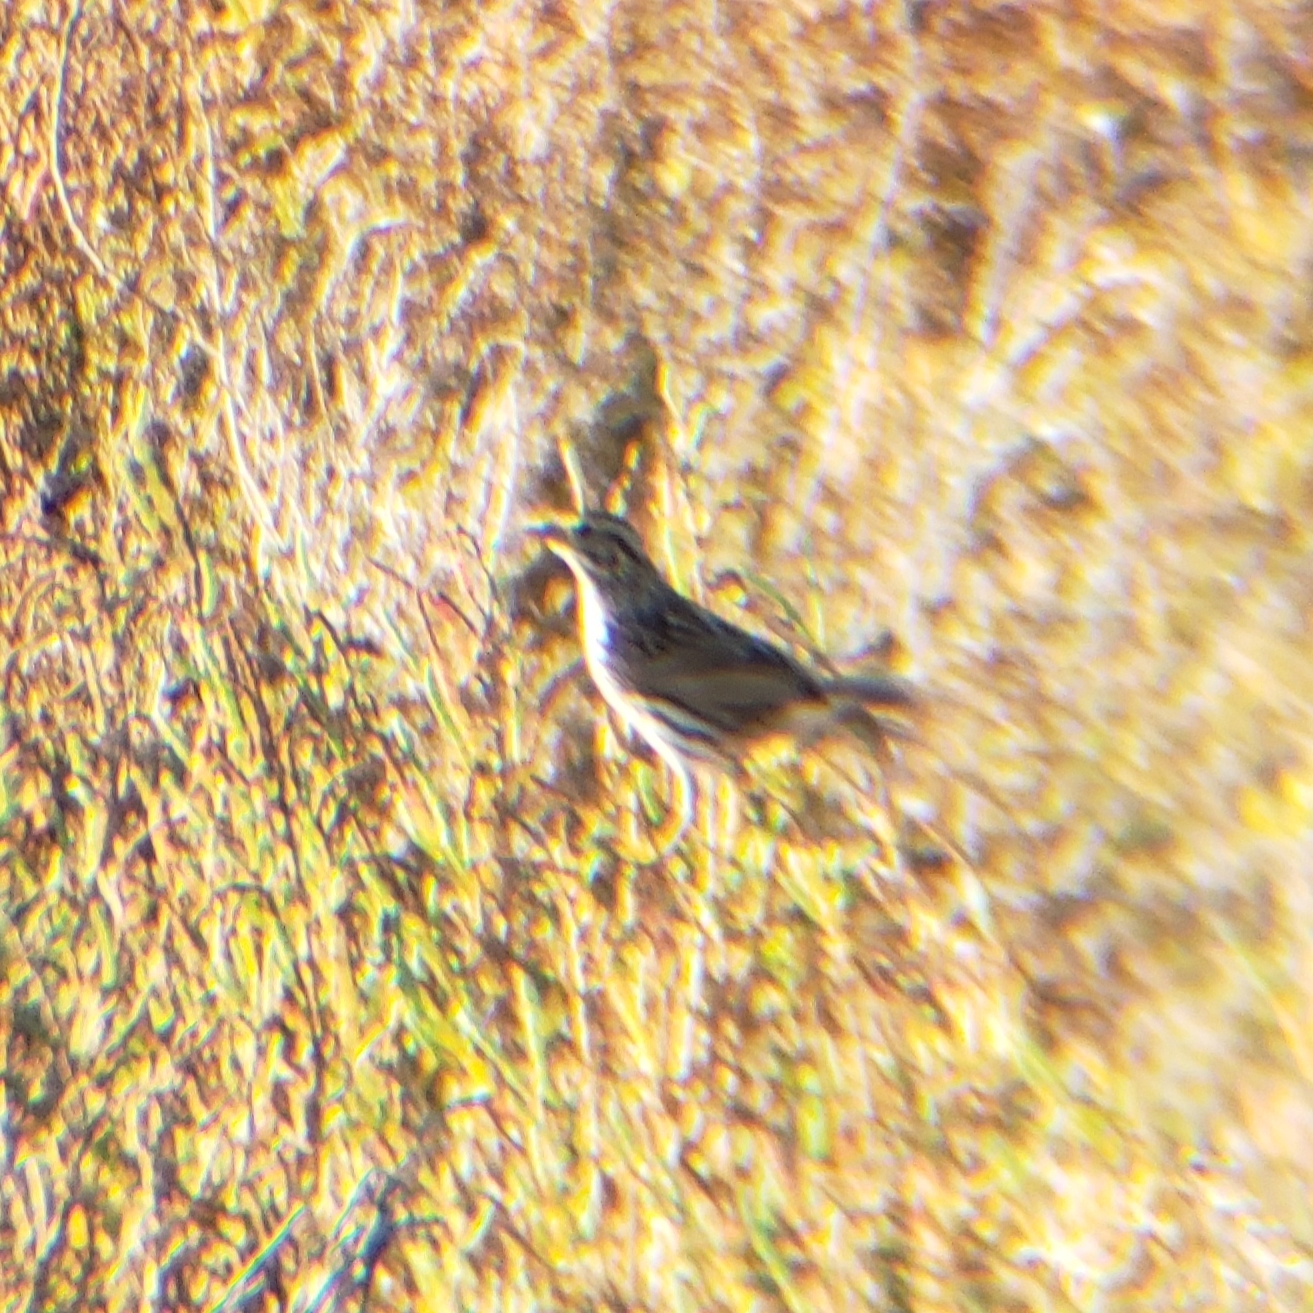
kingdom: Animalia
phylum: Chordata
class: Aves
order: Passeriformes
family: Passerellidae
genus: Passerculus
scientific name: Passerculus sandwichensis
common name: Savannah sparrow
